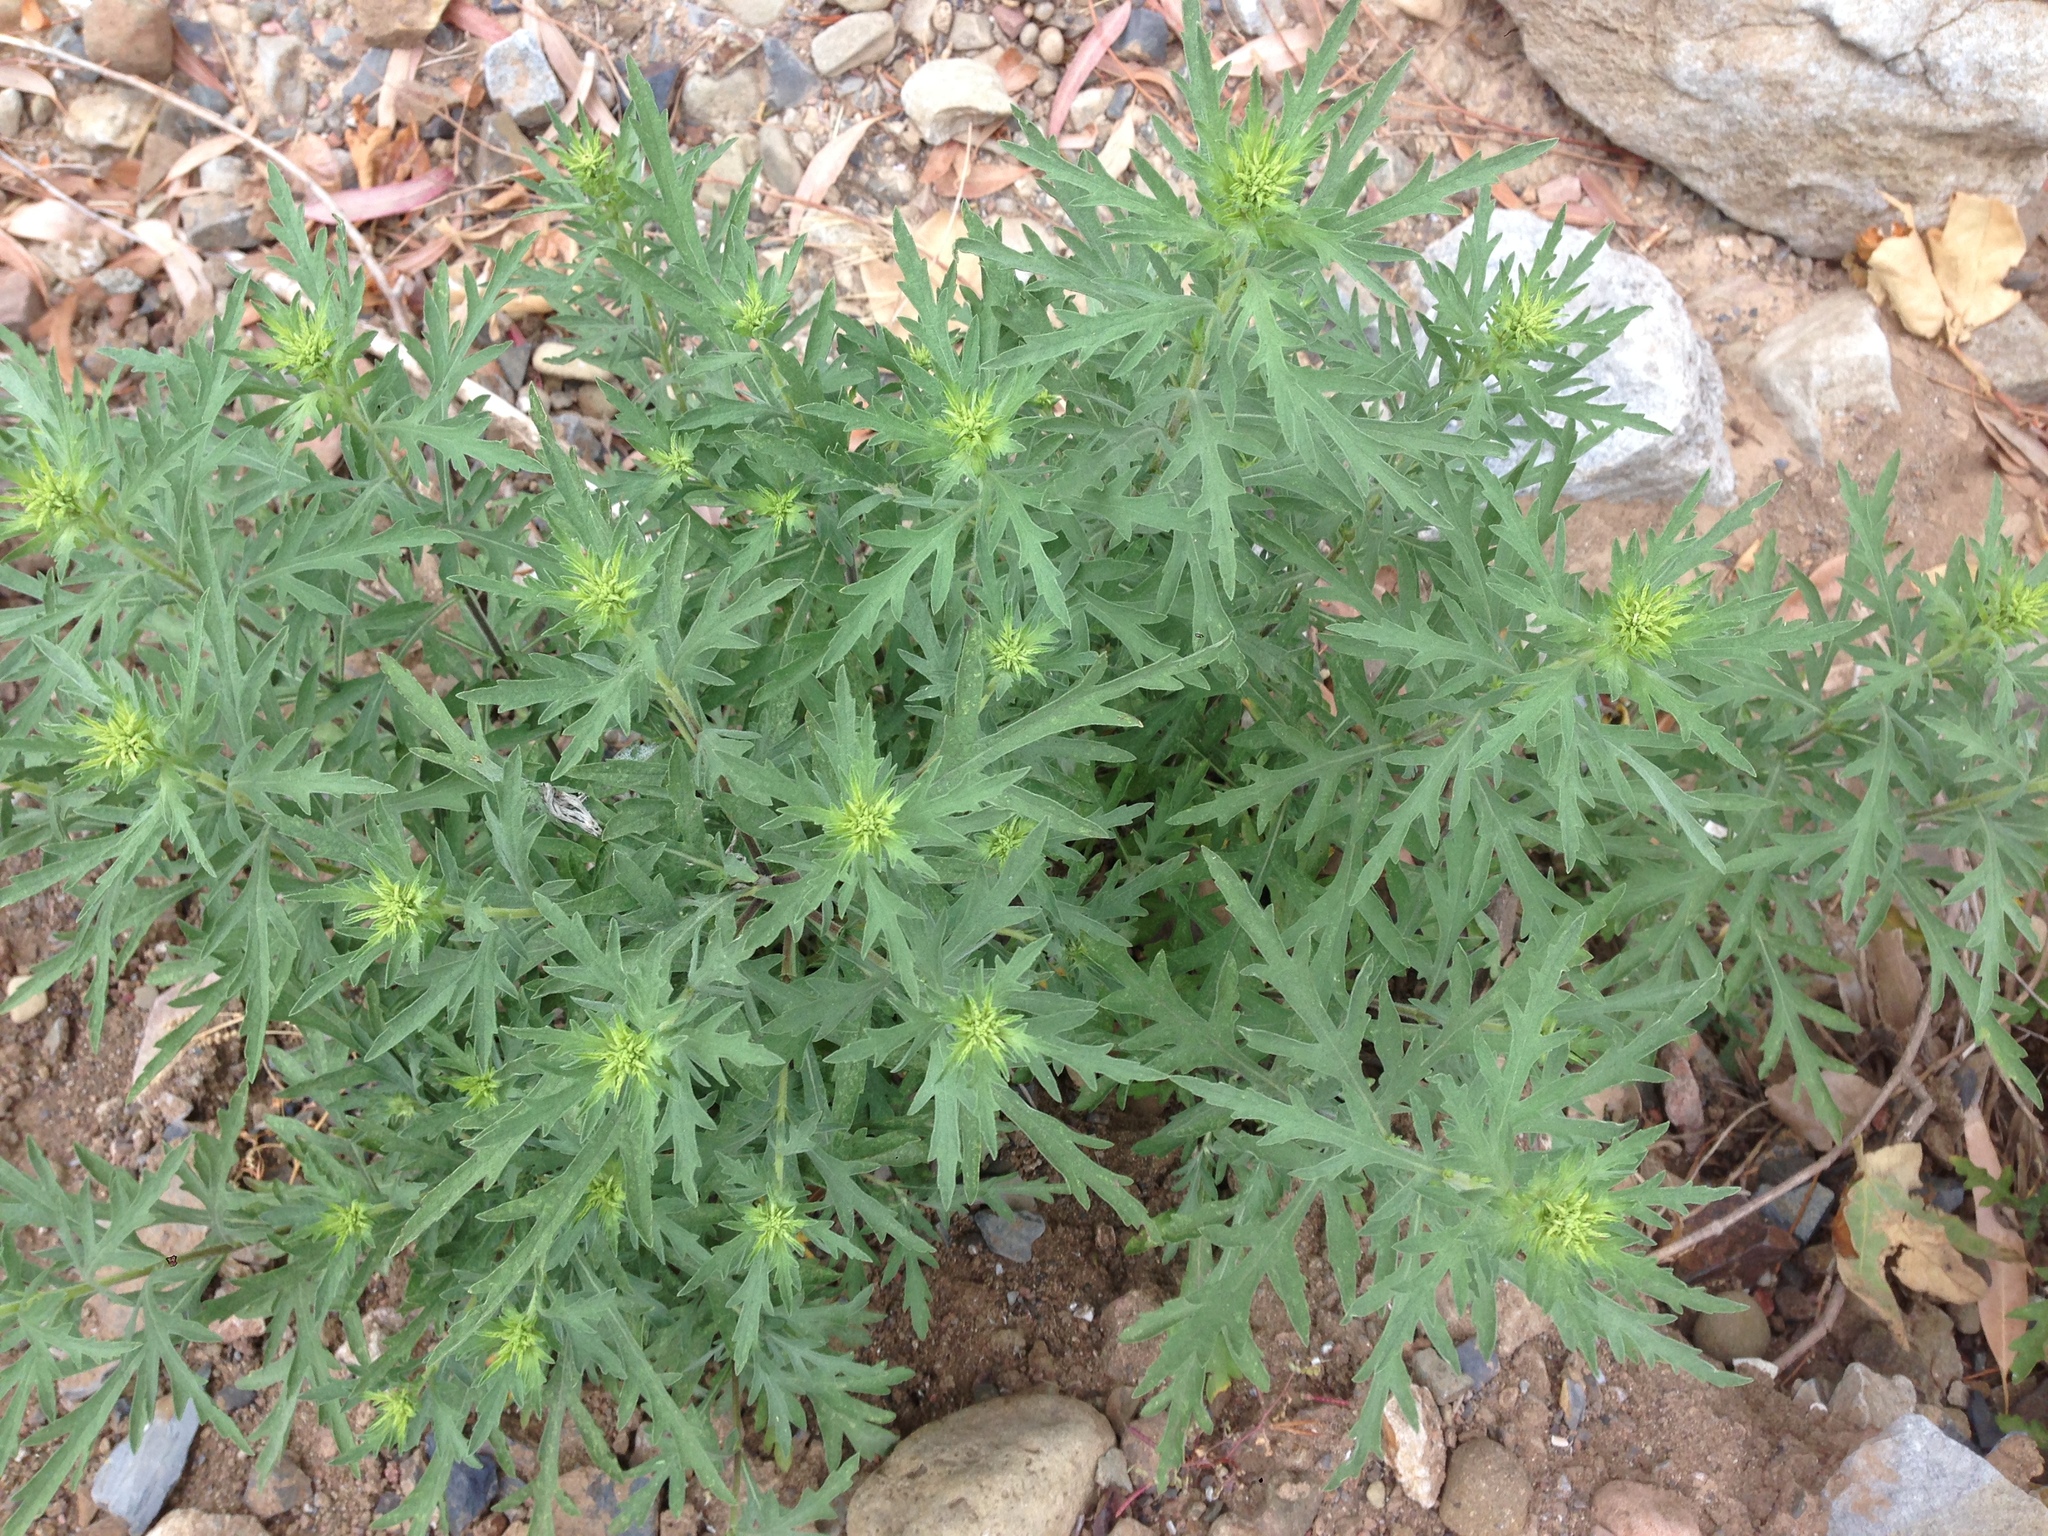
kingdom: Plantae
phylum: Tracheophyta
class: Magnoliopsida
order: Asterales
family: Asteraceae
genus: Ambrosia
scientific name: Ambrosia psilostachya
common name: Perennial ragweed
